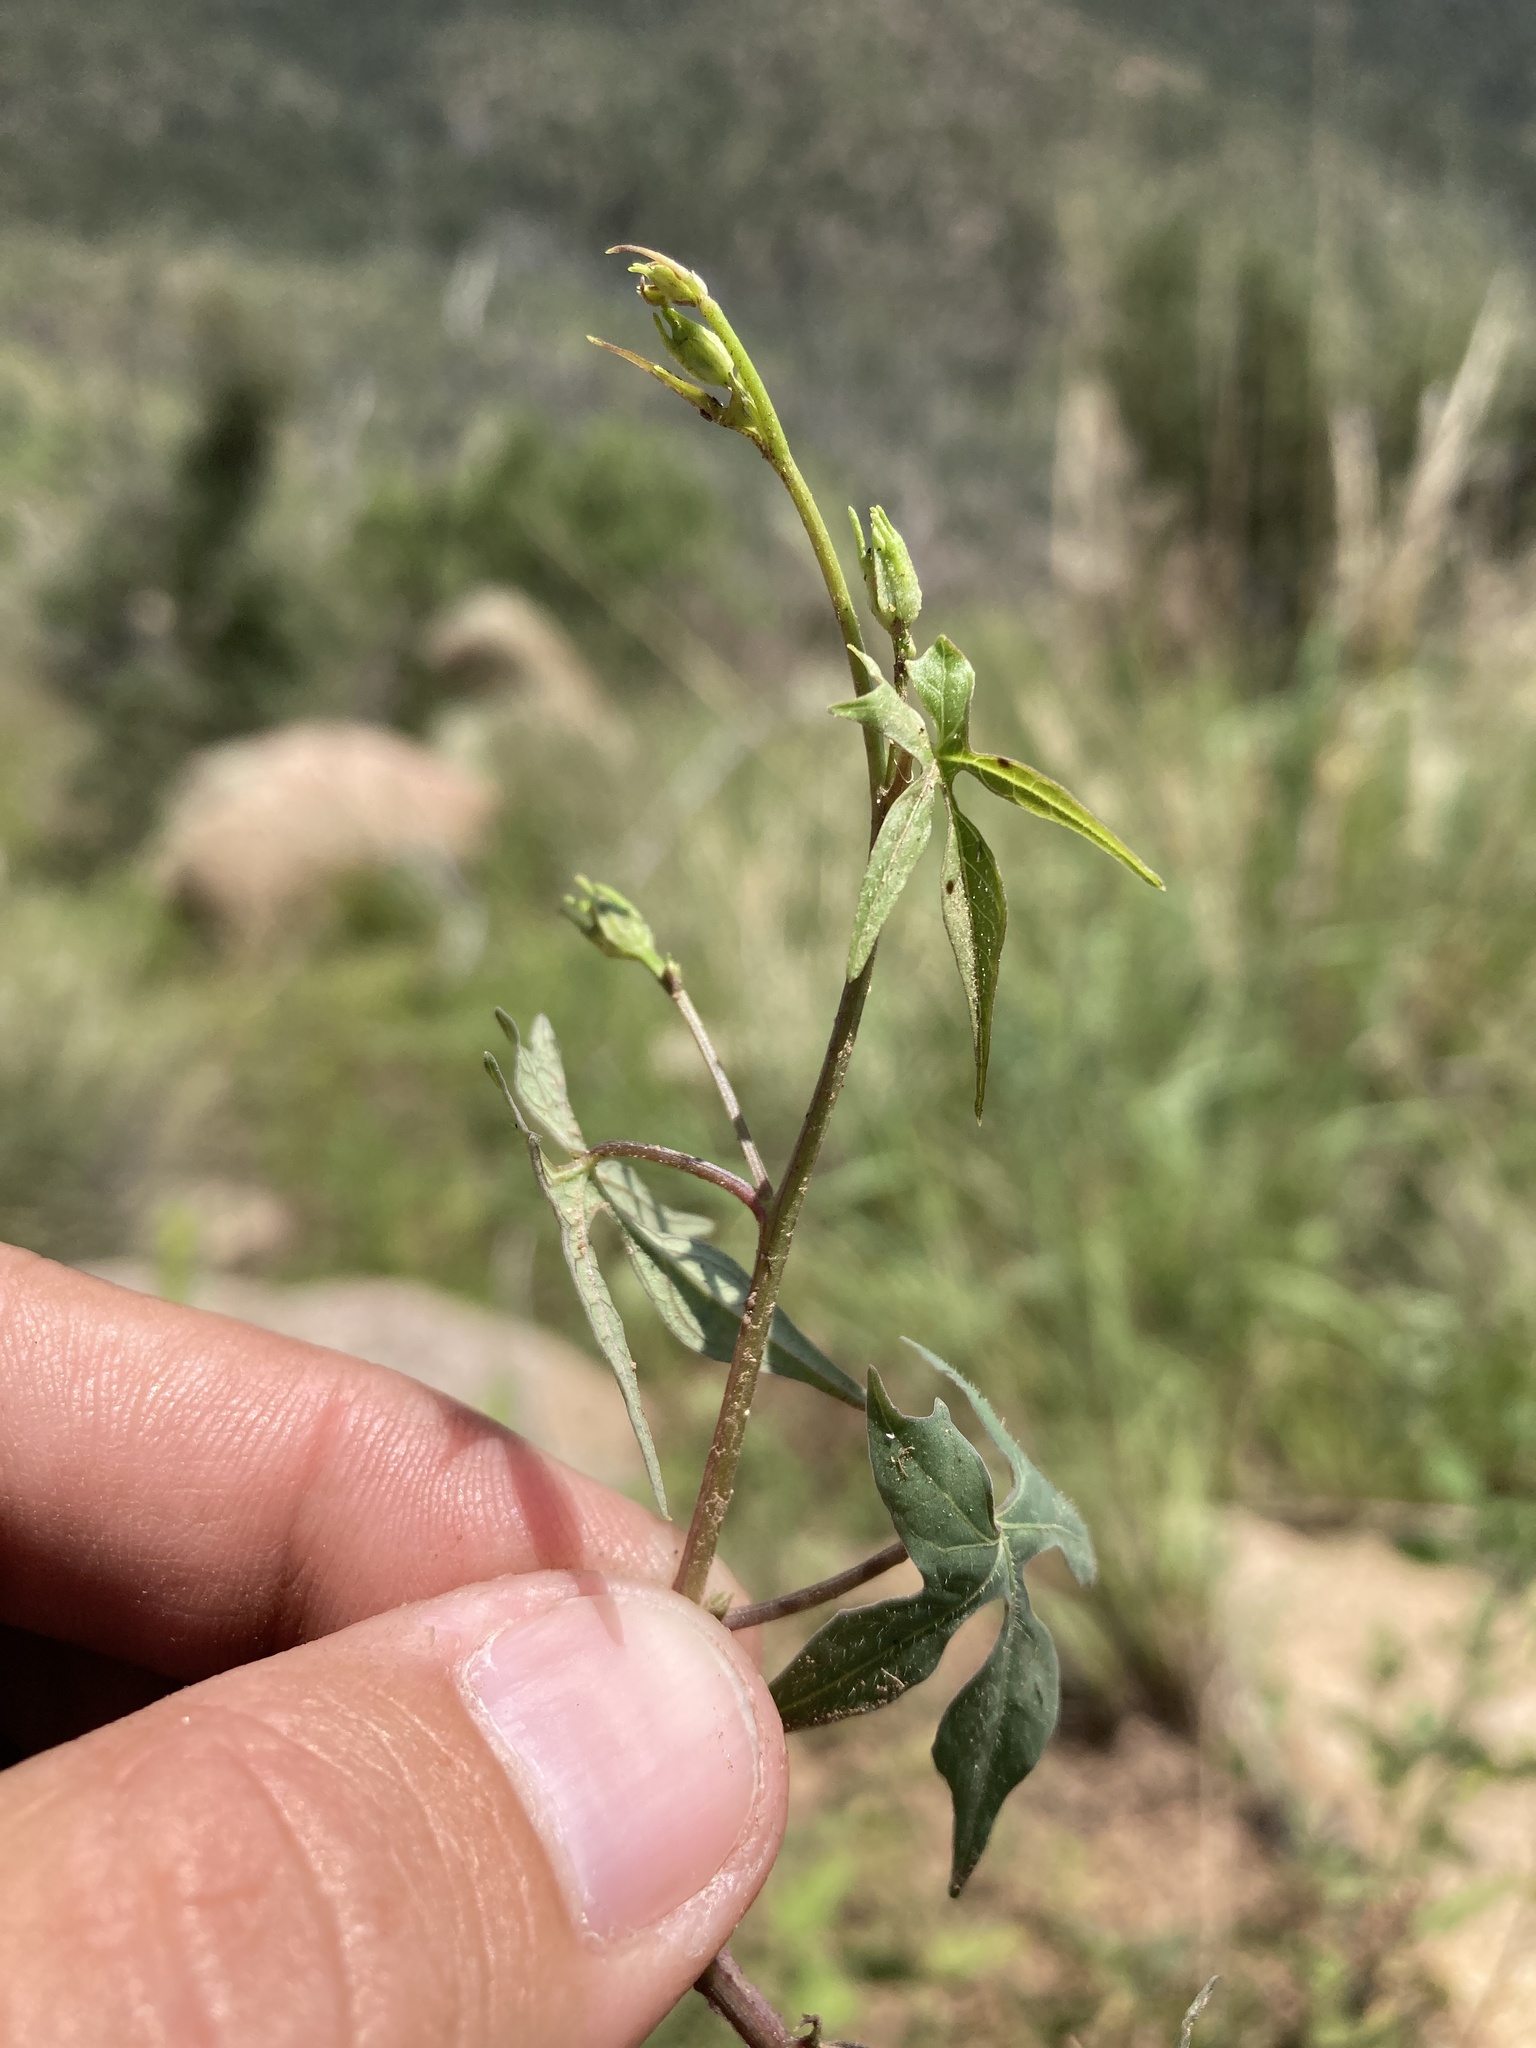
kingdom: Plantae
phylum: Tracheophyta
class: Magnoliopsida
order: Solanales
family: Convolvulaceae
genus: Ipomoea
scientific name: Ipomoea cristulata
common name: Trans-pecos morning-glory
